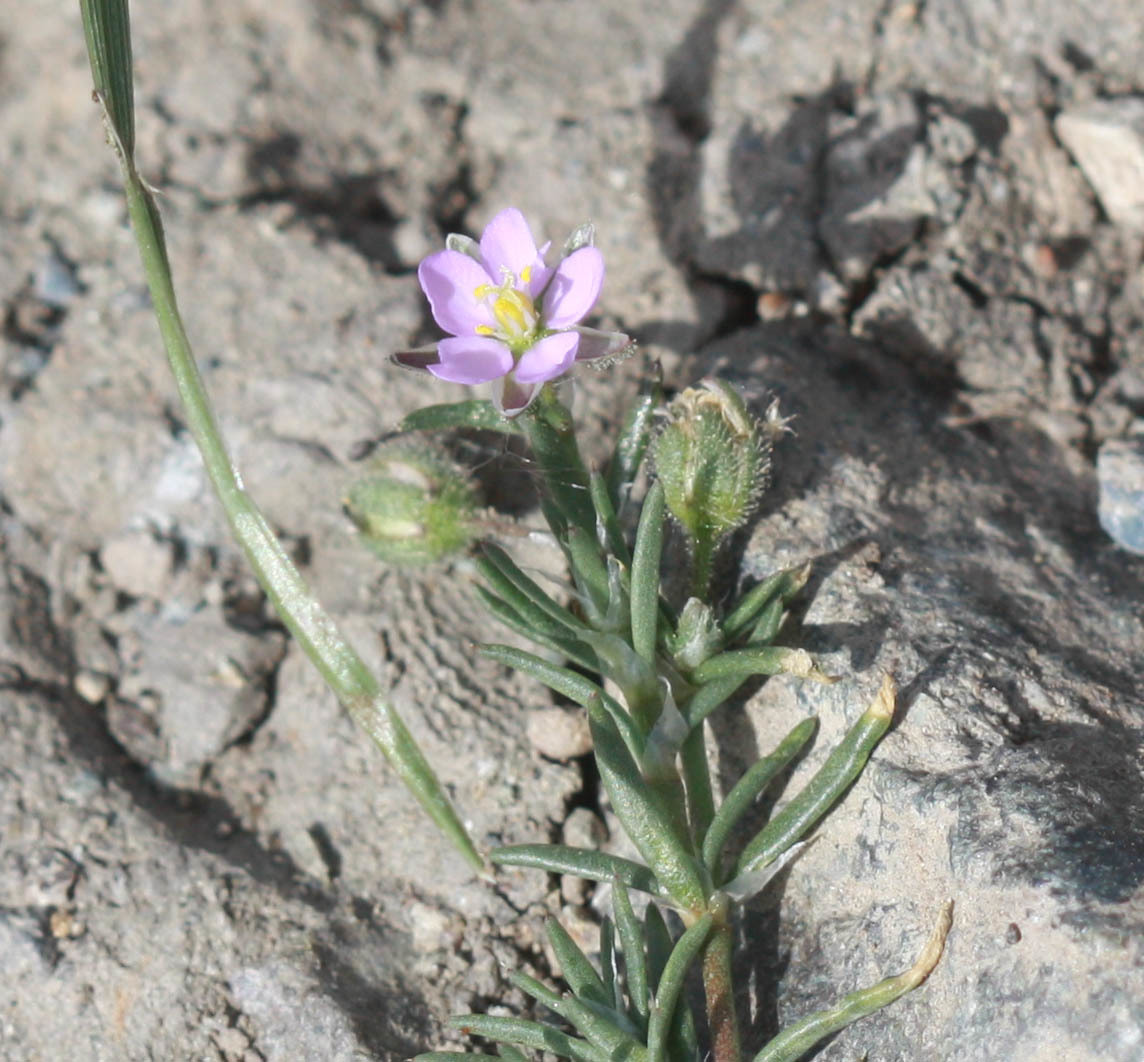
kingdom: Plantae
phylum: Tracheophyta
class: Magnoliopsida
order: Caryophyllales
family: Caryophyllaceae
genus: Spergularia
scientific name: Spergularia rubra
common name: Red sand-spurrey
